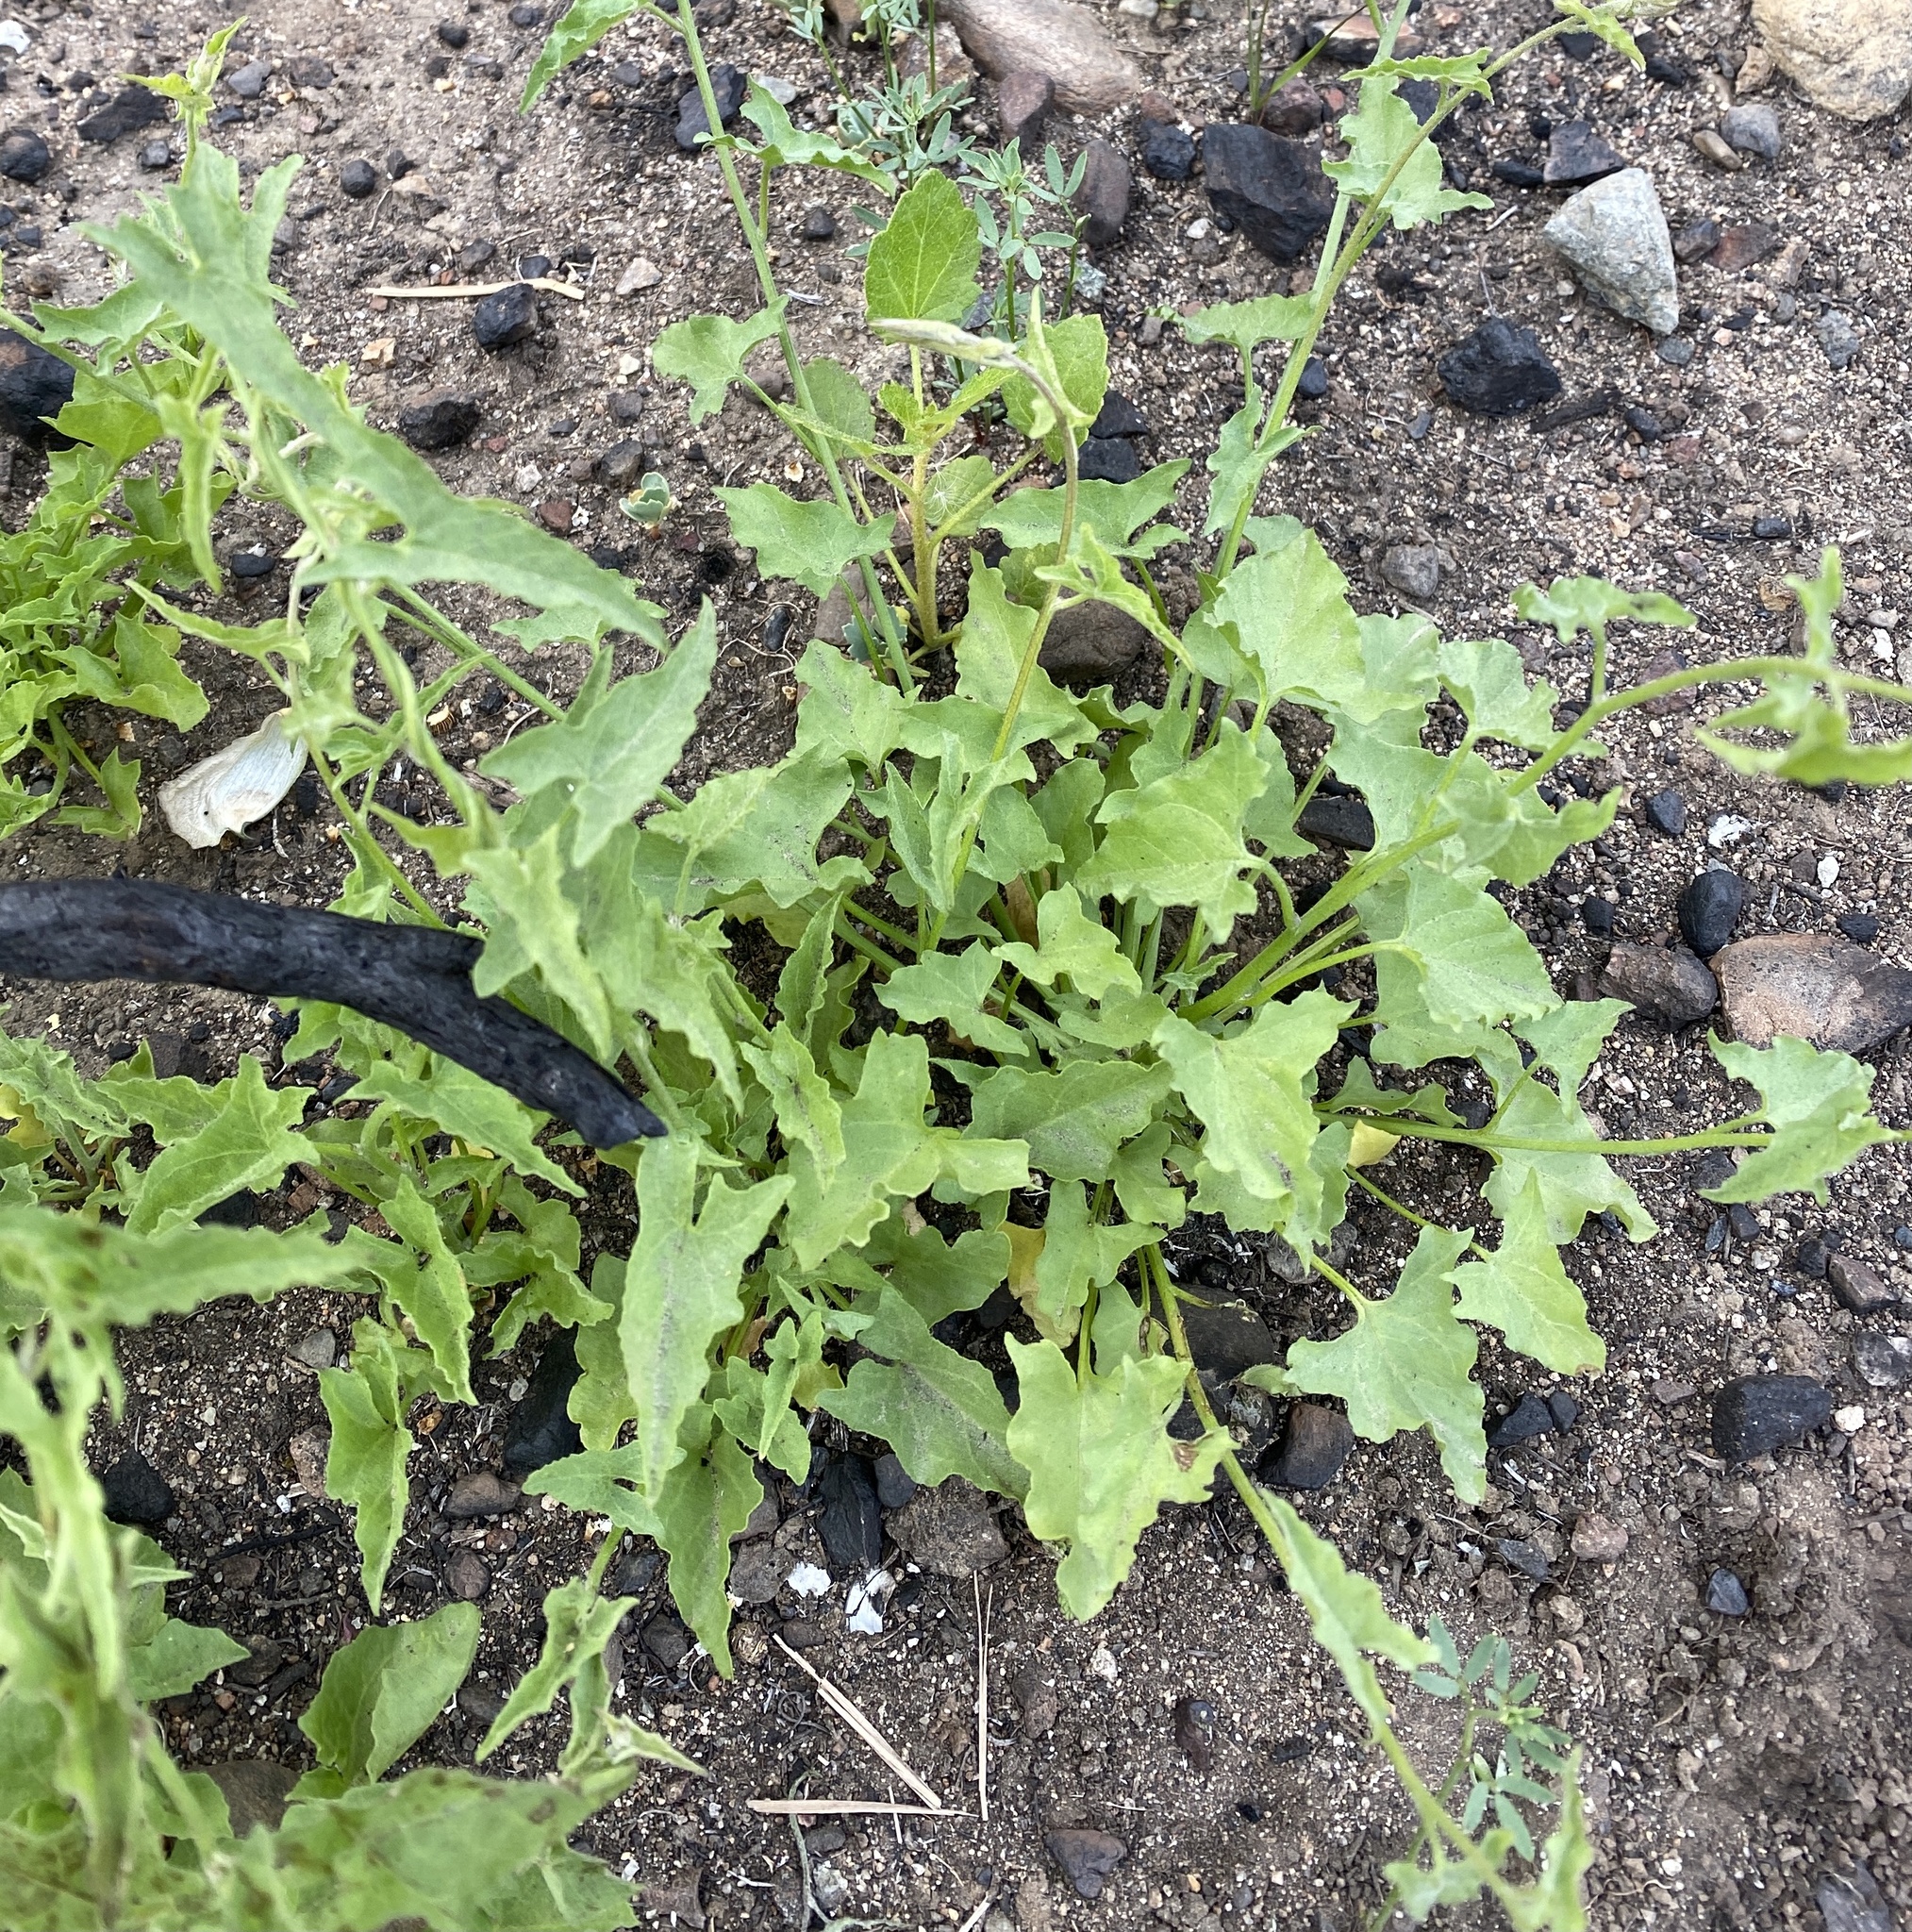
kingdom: Plantae
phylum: Tracheophyta
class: Magnoliopsida
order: Solanales
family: Convolvulaceae
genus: Calystegia
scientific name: Calystegia macrostegia
